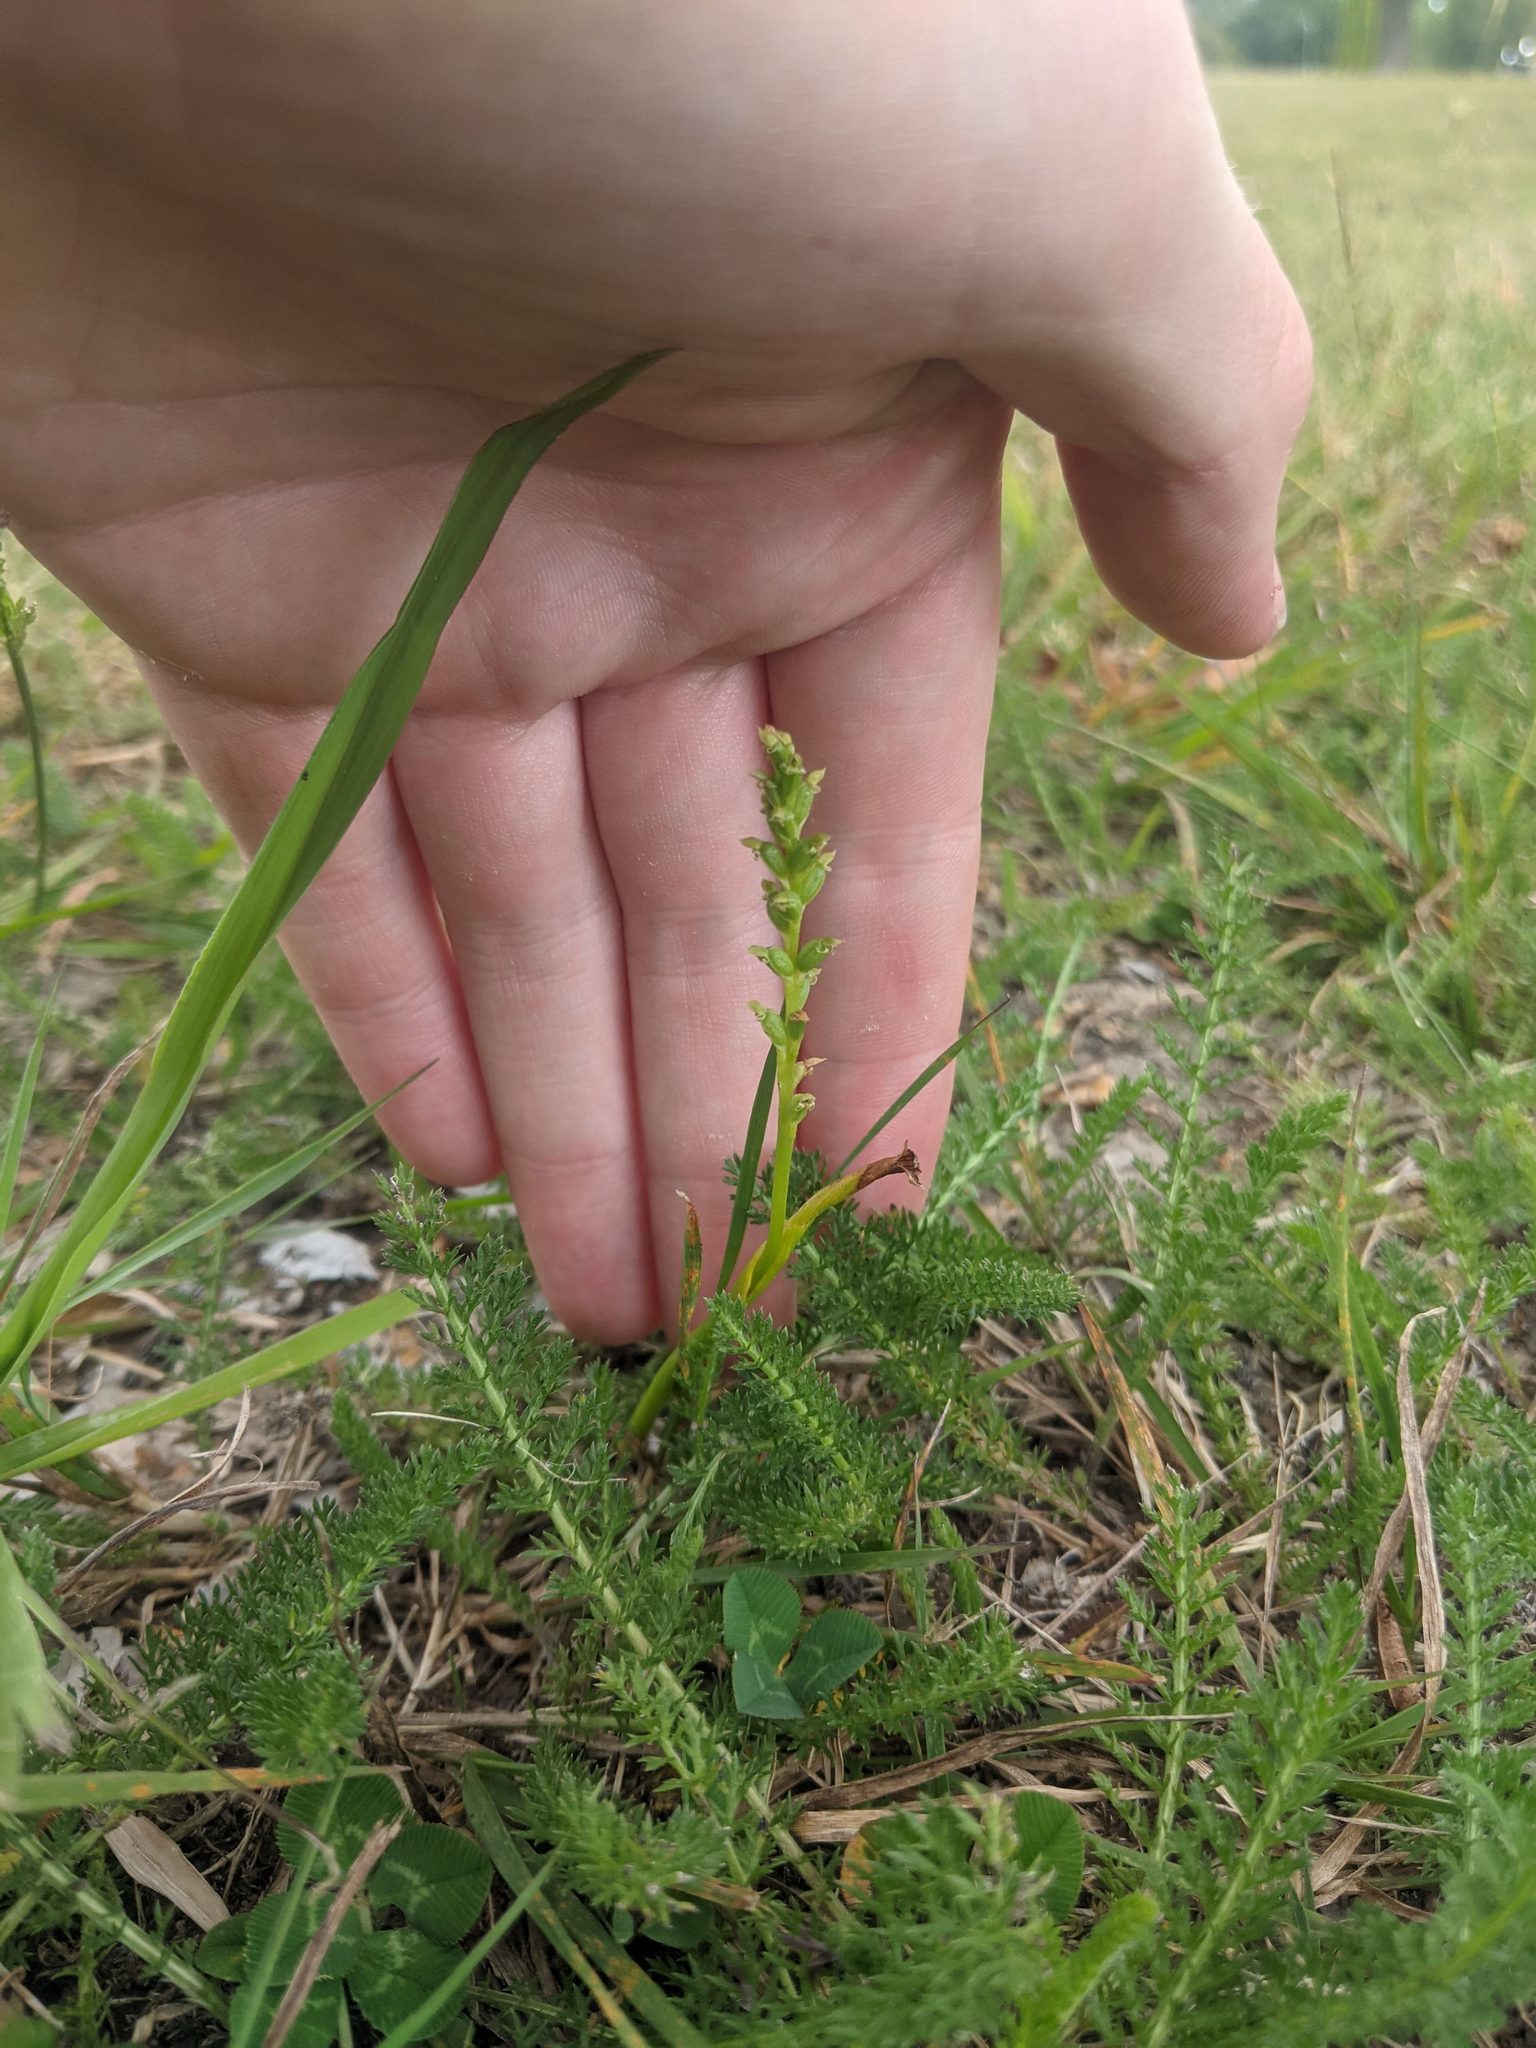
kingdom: Plantae
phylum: Tracheophyta
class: Liliopsida
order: Asparagales
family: Orchidaceae
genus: Microtis
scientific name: Microtis unifolia
